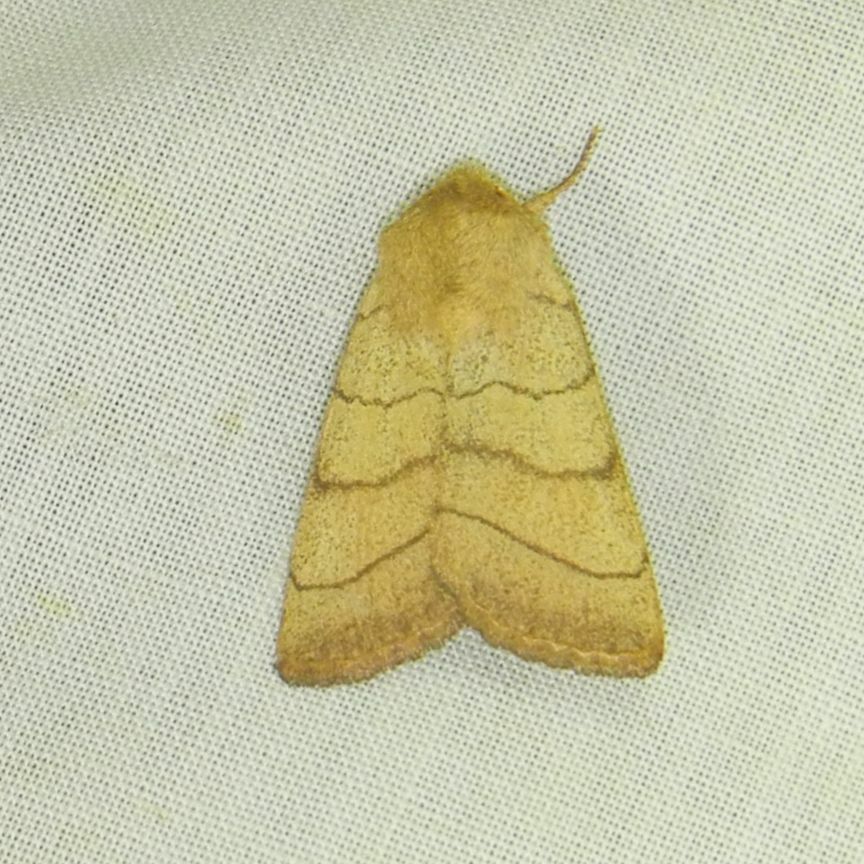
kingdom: Animalia
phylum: Arthropoda
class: Insecta
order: Lepidoptera
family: Noctuidae
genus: Charanyca
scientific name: Charanyca trigrammica
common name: Treble lines
